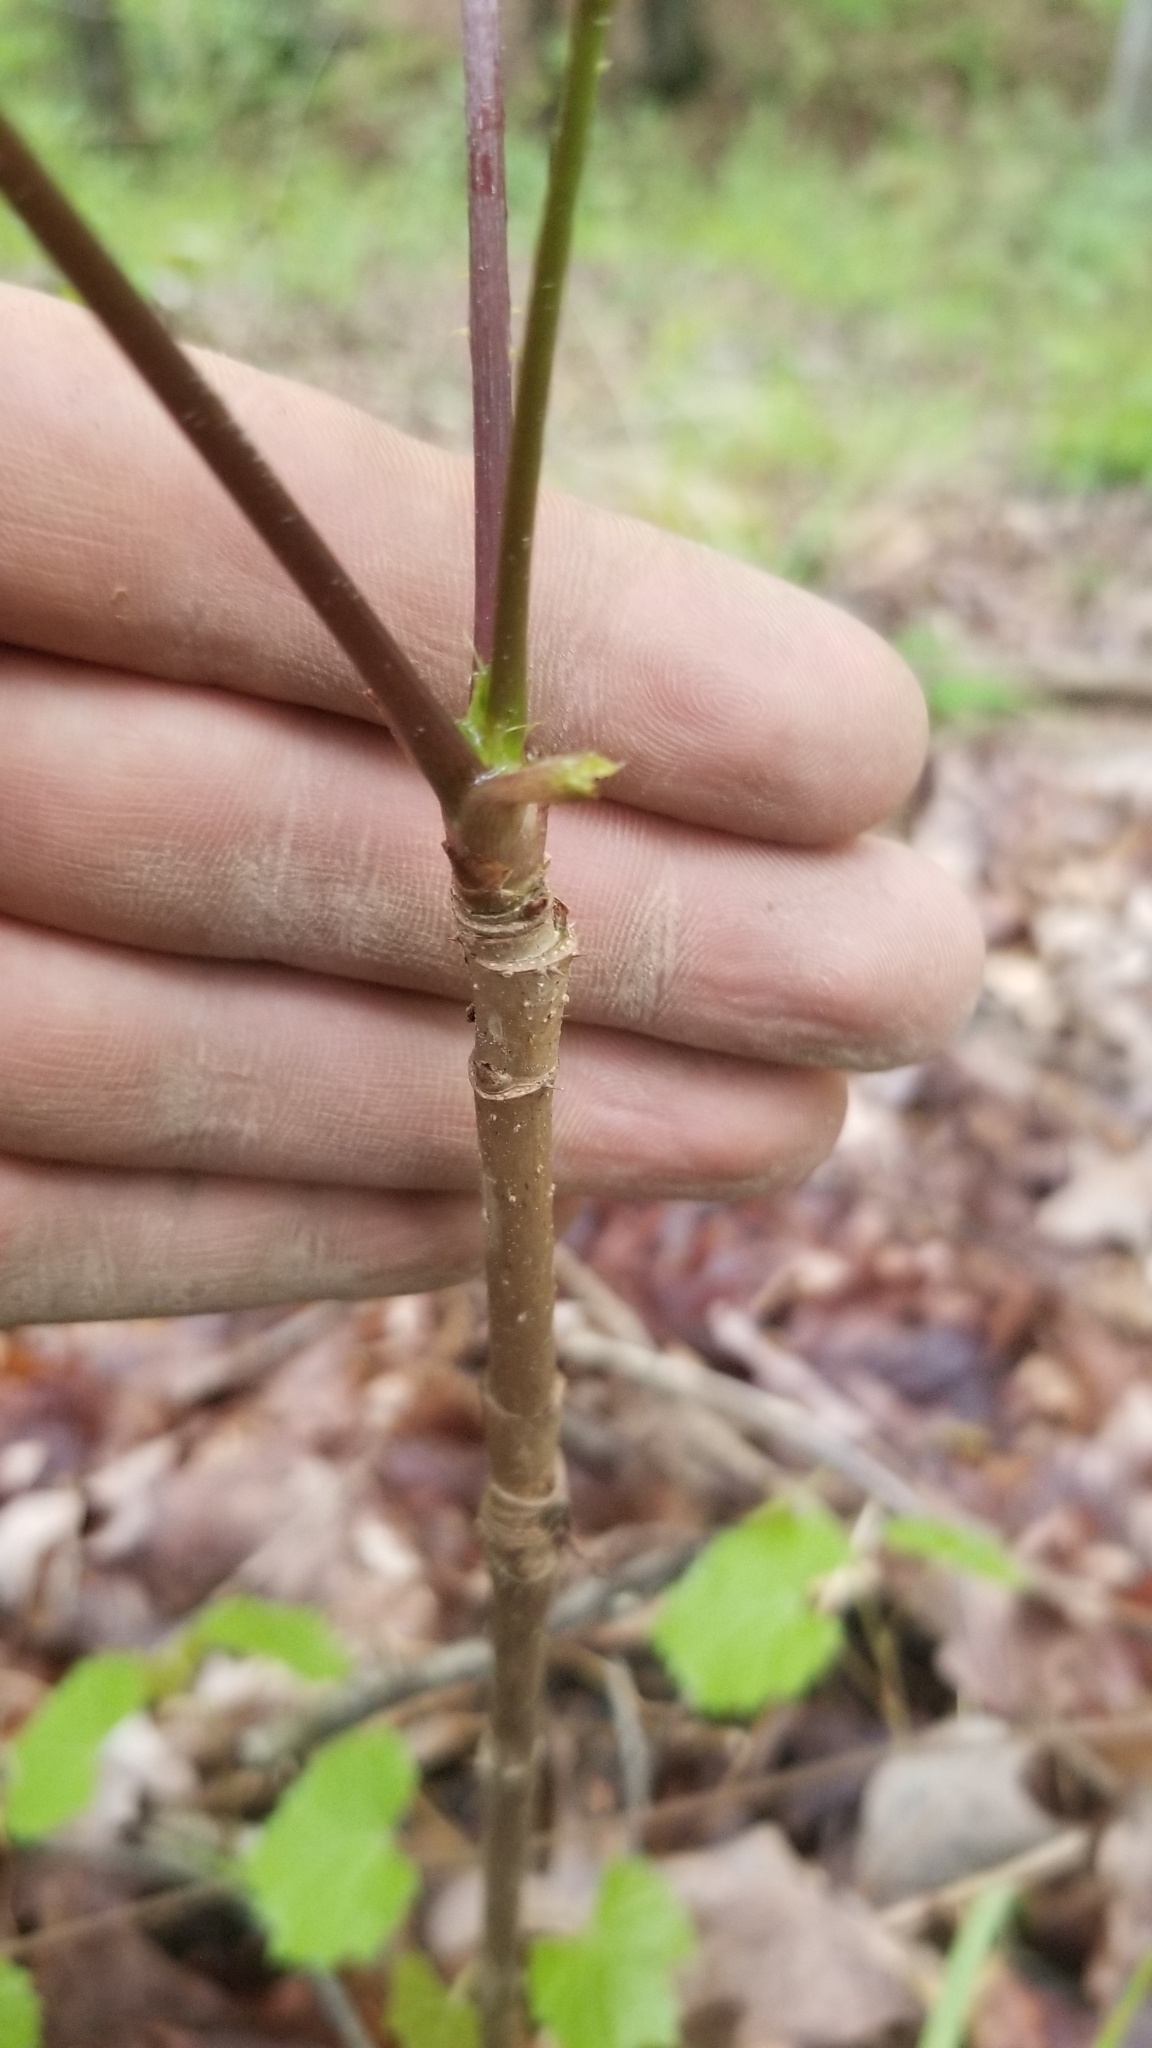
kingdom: Plantae
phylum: Tracheophyta
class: Magnoliopsida
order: Apiales
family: Araliaceae
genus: Aralia
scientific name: Aralia spinosa
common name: Hercules'-club
